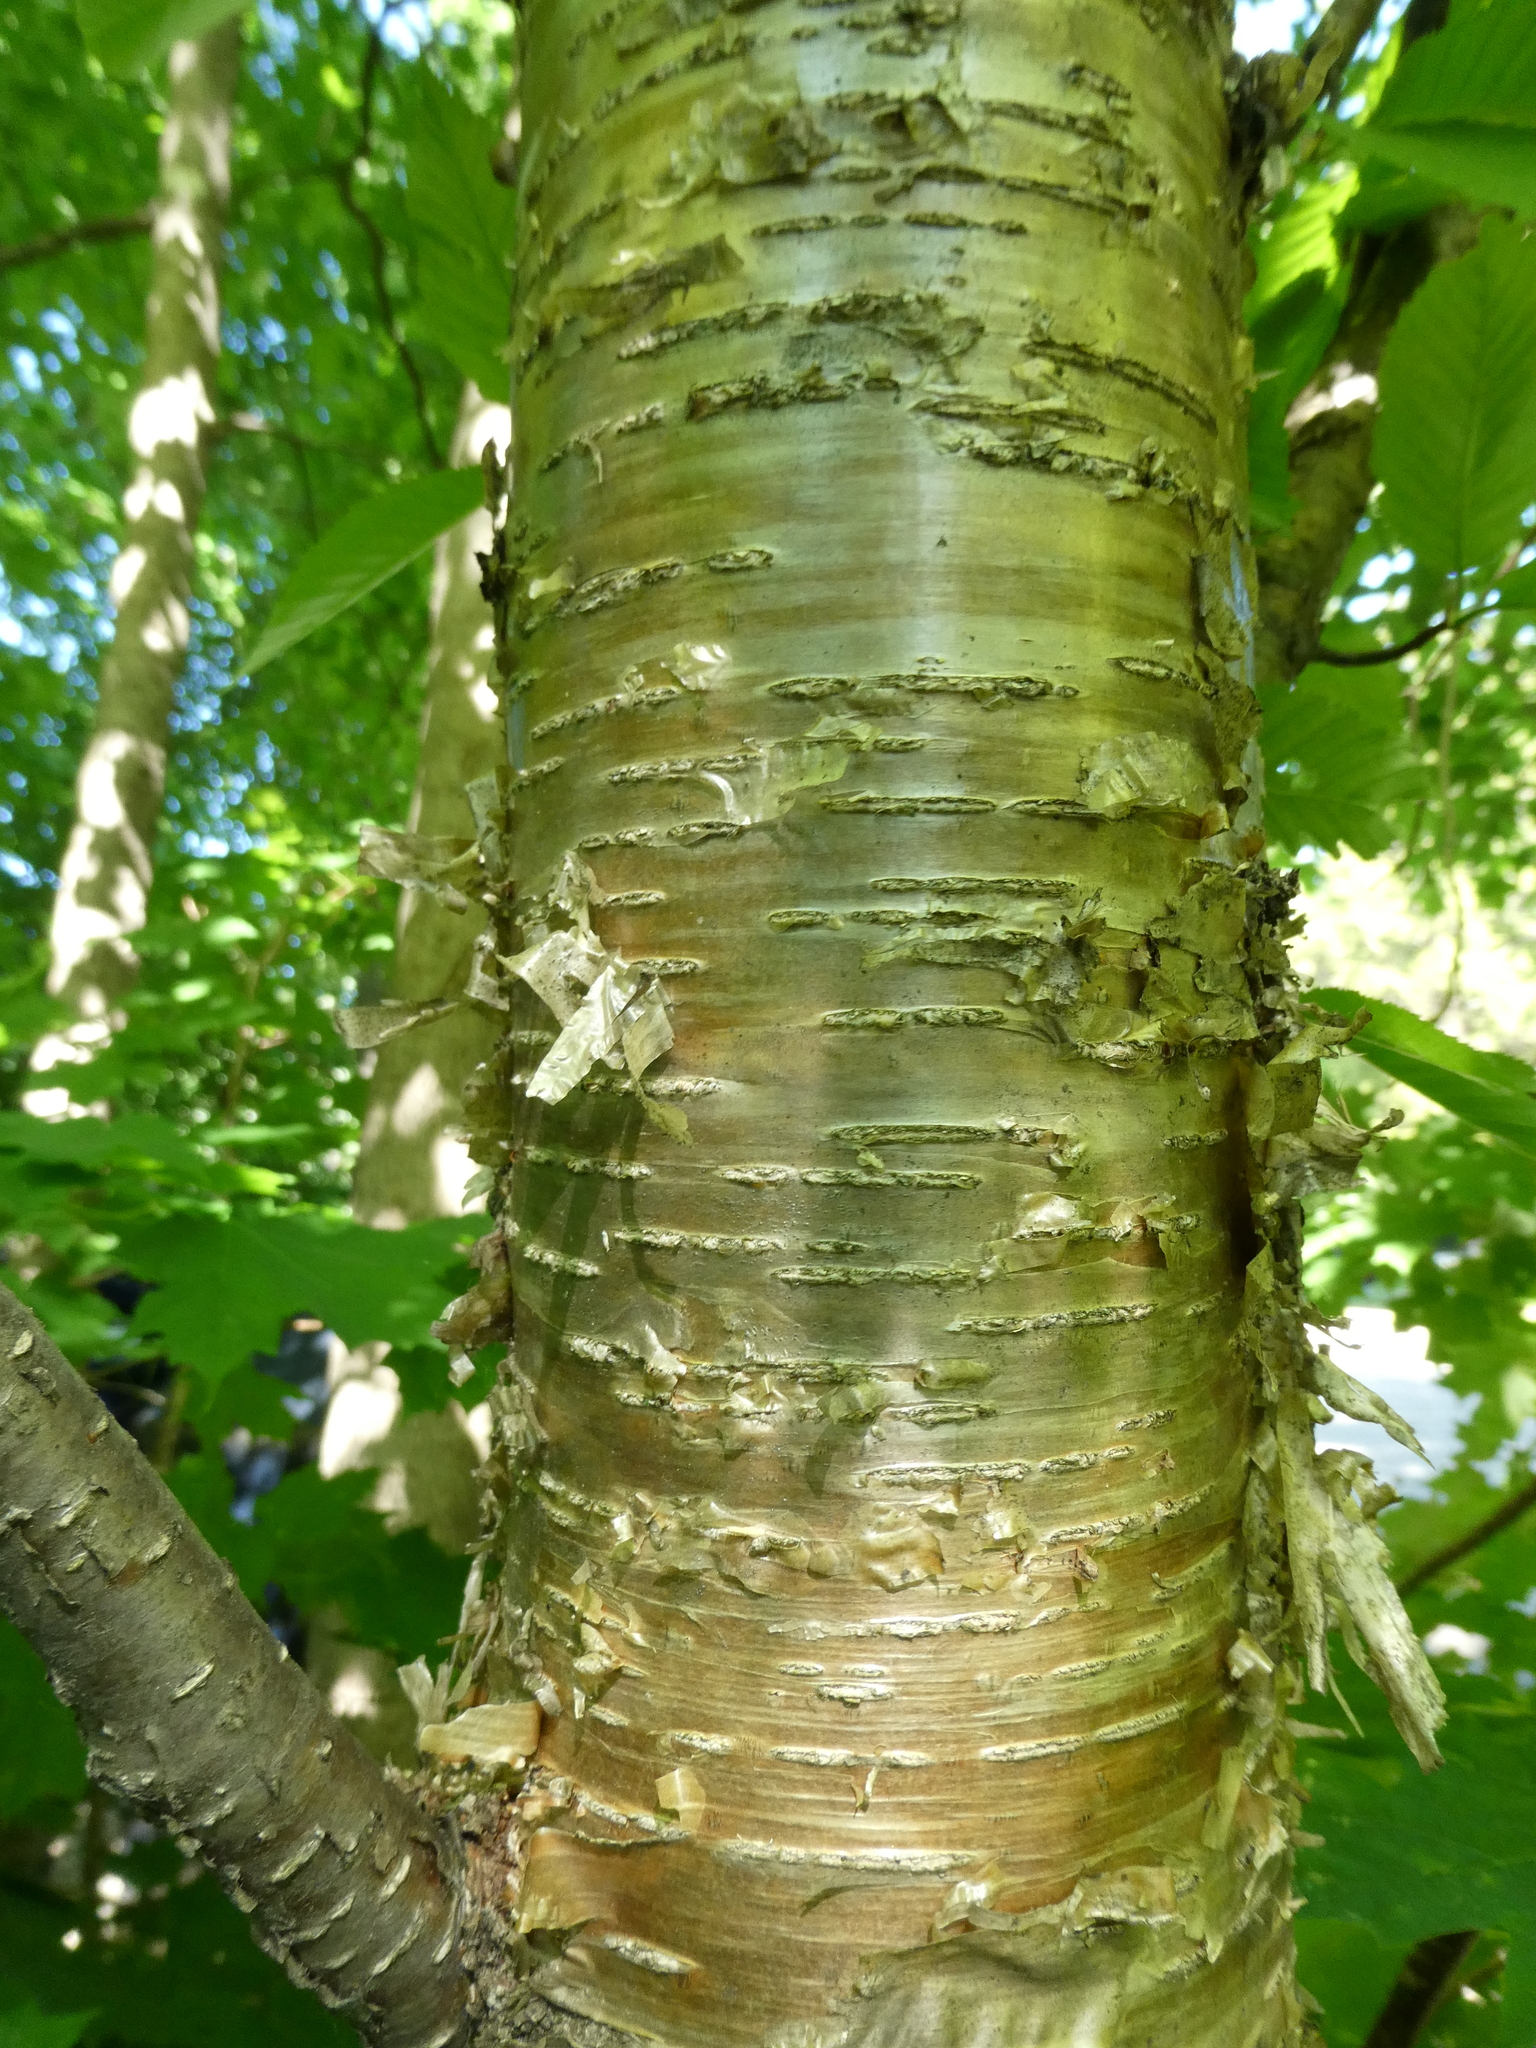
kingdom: Plantae
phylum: Tracheophyta
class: Magnoliopsida
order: Fagales
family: Betulaceae
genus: Betula
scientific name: Betula alleghaniensis
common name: Yellow birch
